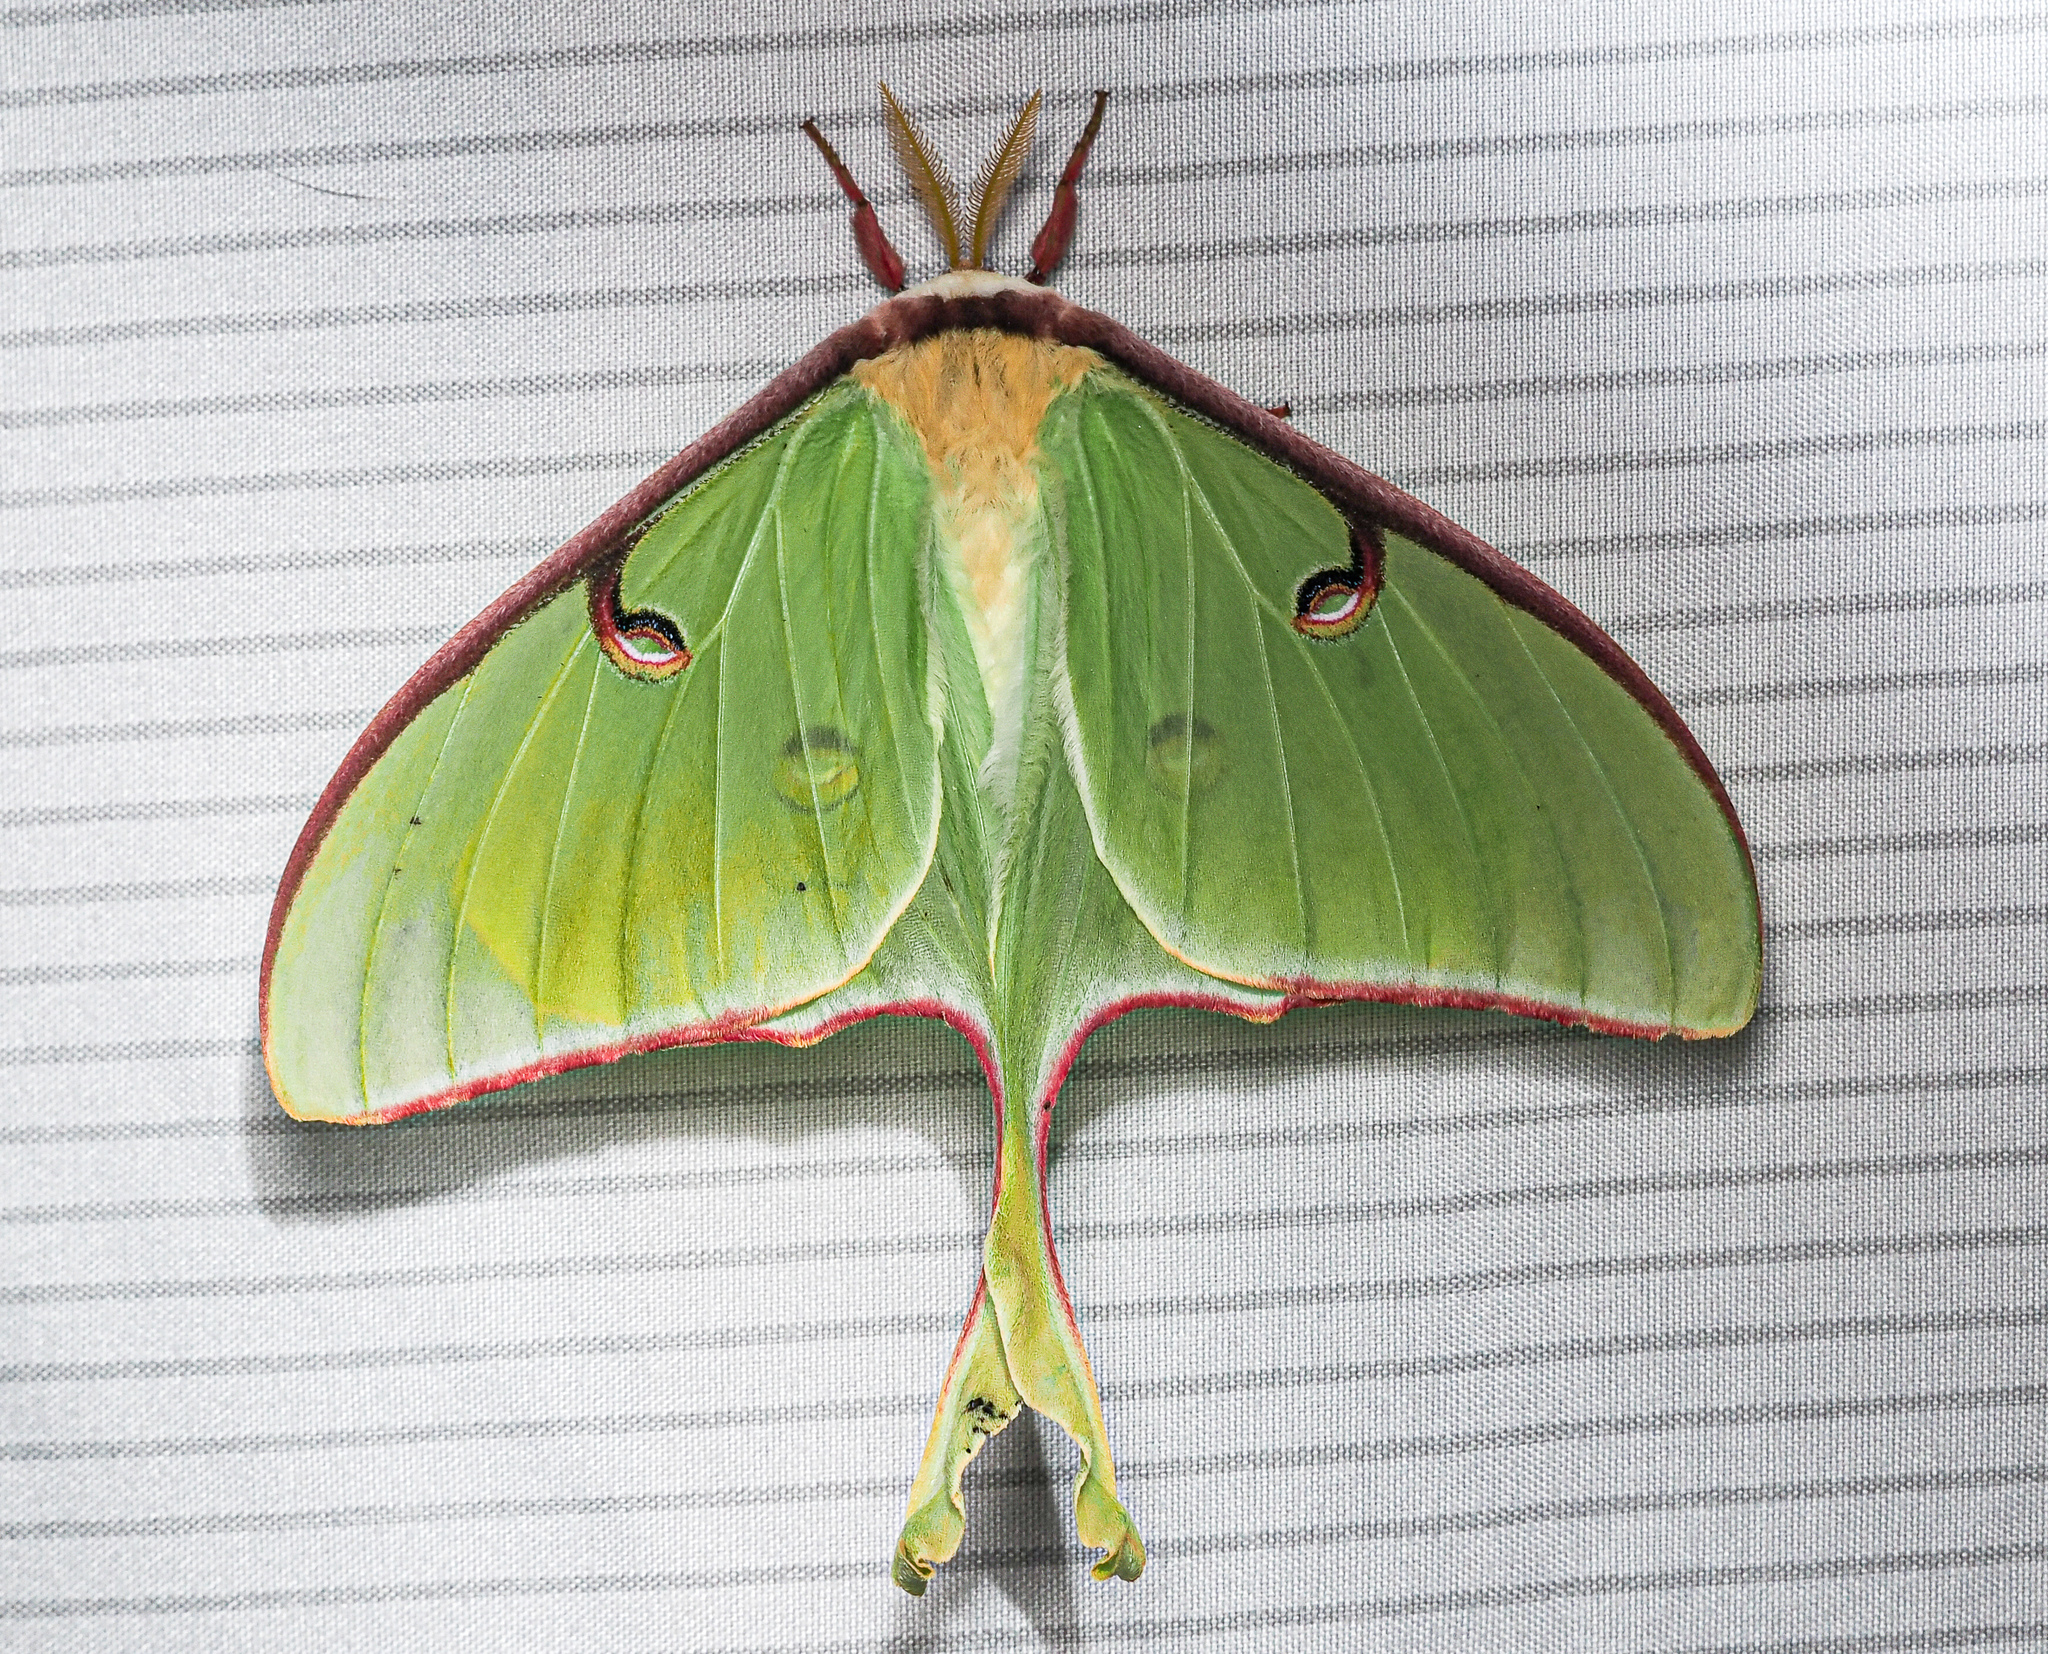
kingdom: Animalia
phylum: Arthropoda
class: Insecta
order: Lepidoptera
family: Saturniidae
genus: Actias
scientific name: Actias luna
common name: Luna moth
